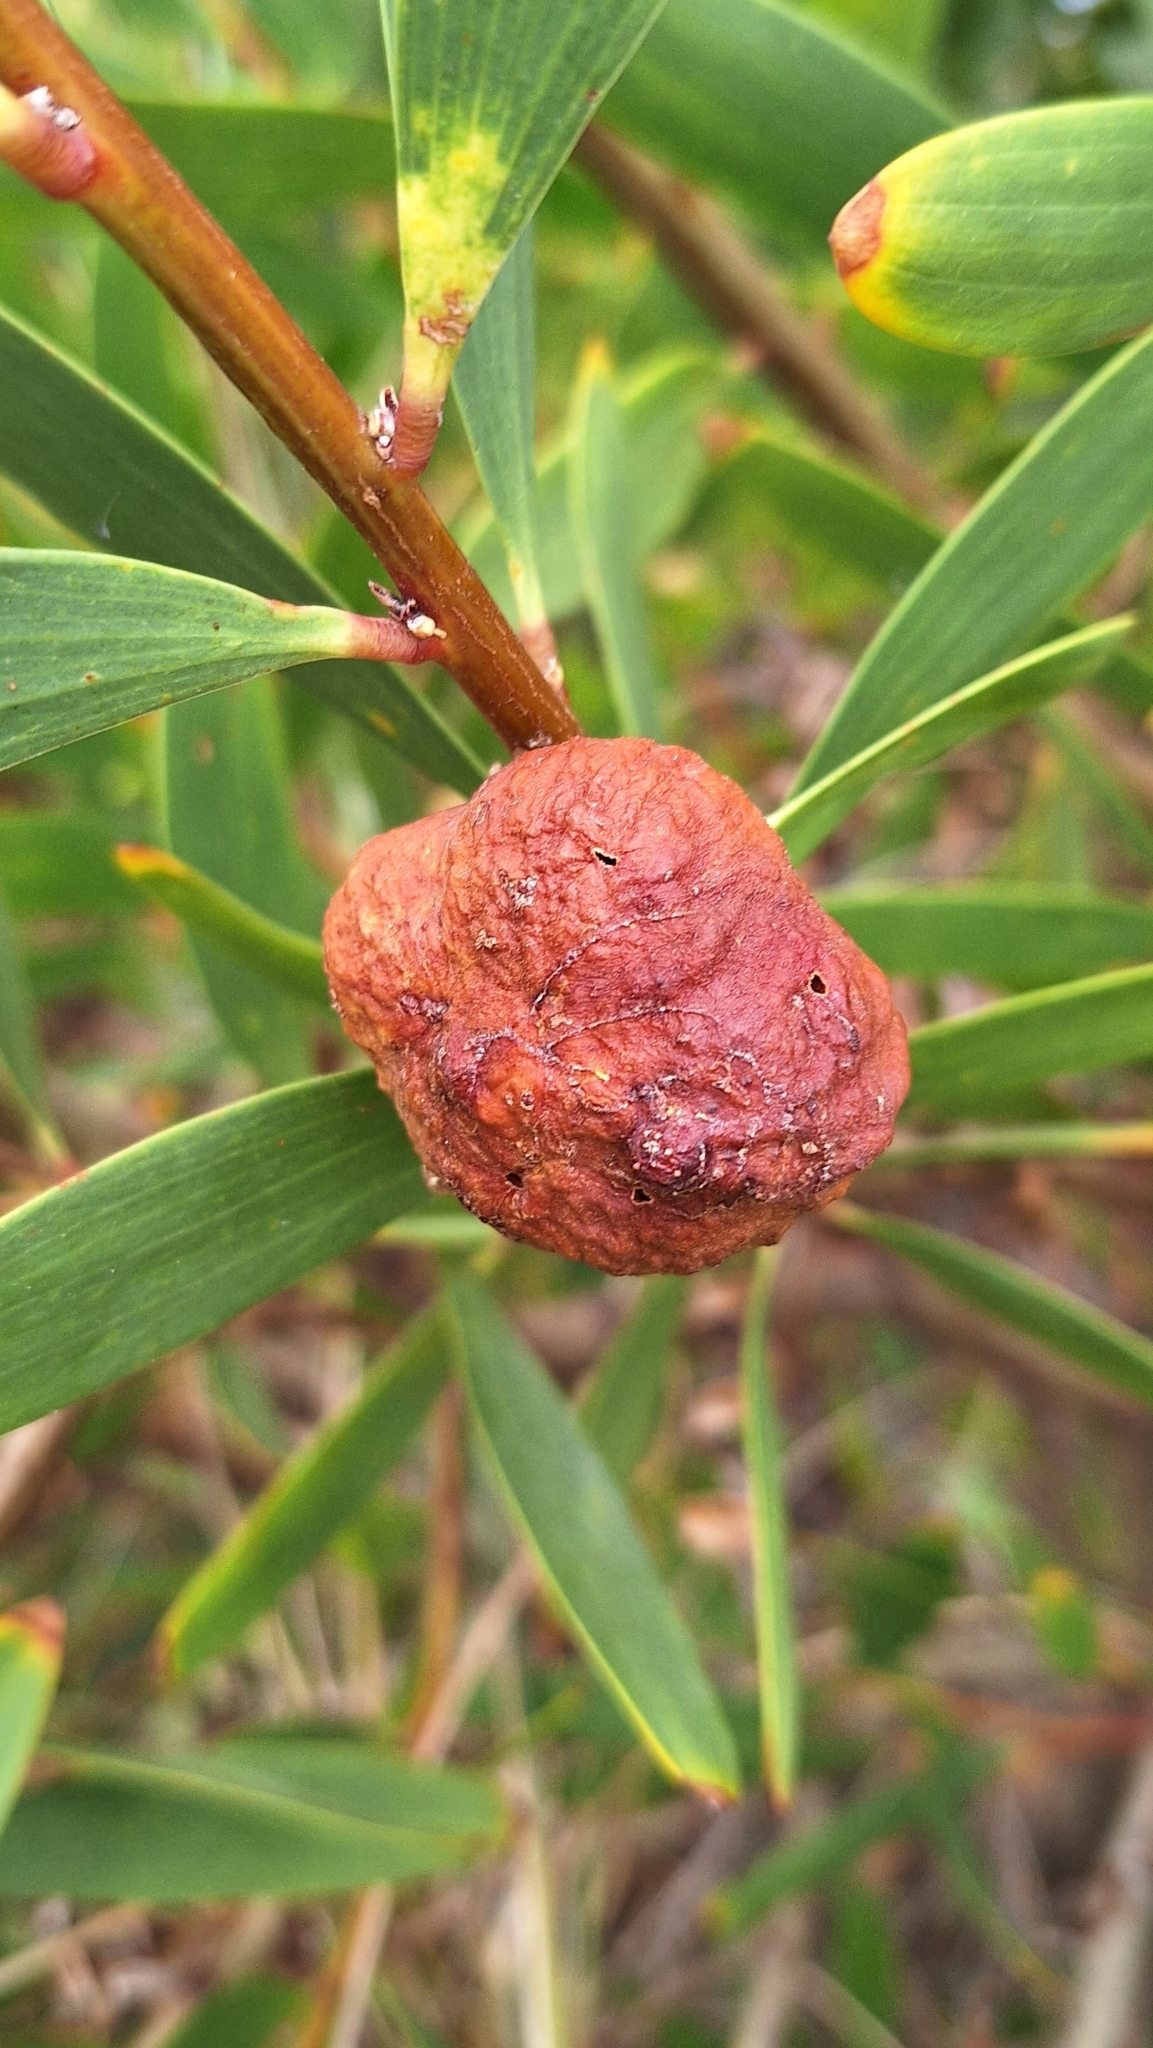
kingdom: Animalia
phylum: Arthropoda
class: Insecta
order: Hymenoptera
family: Pteromalidae
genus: Trichilogaster
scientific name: Trichilogaster acaciaelongifoliae
